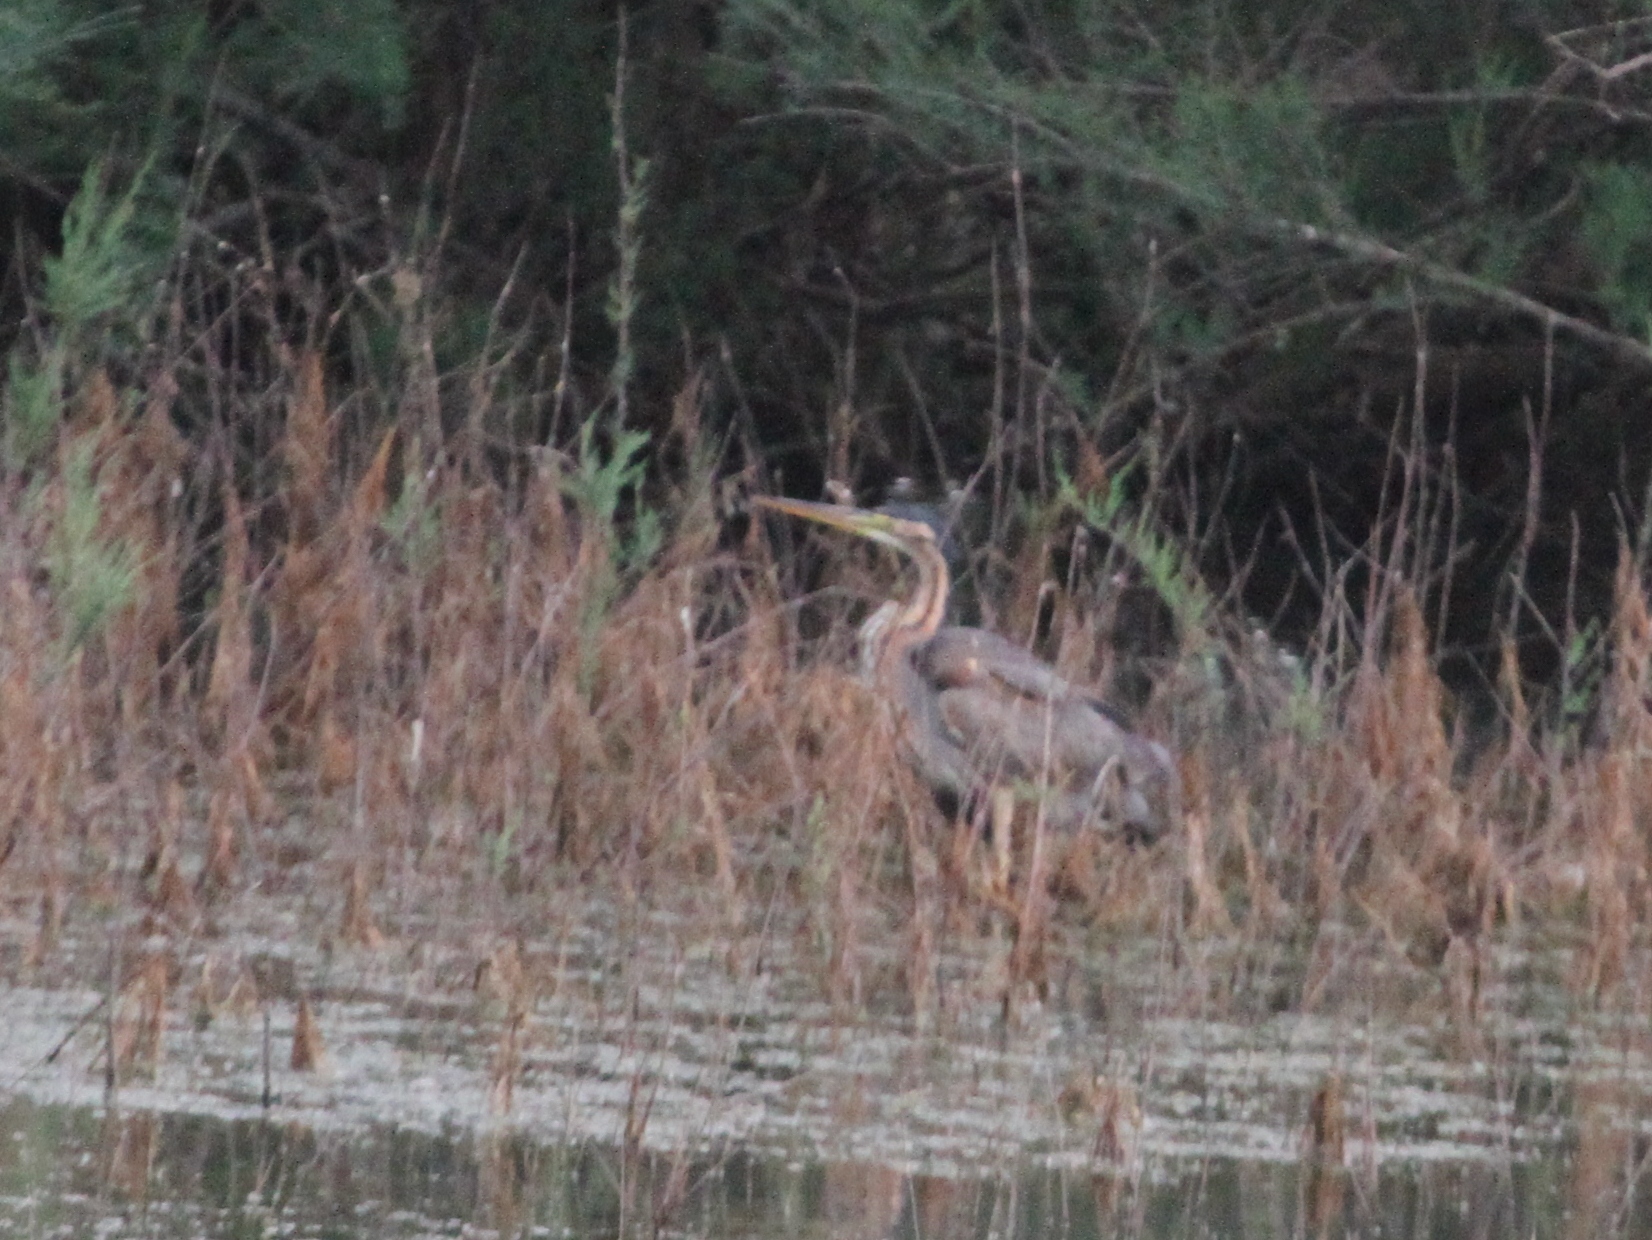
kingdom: Animalia
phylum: Chordata
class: Aves
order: Pelecaniformes
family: Ardeidae
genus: Ardea
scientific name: Ardea purpurea
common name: Purple heron
